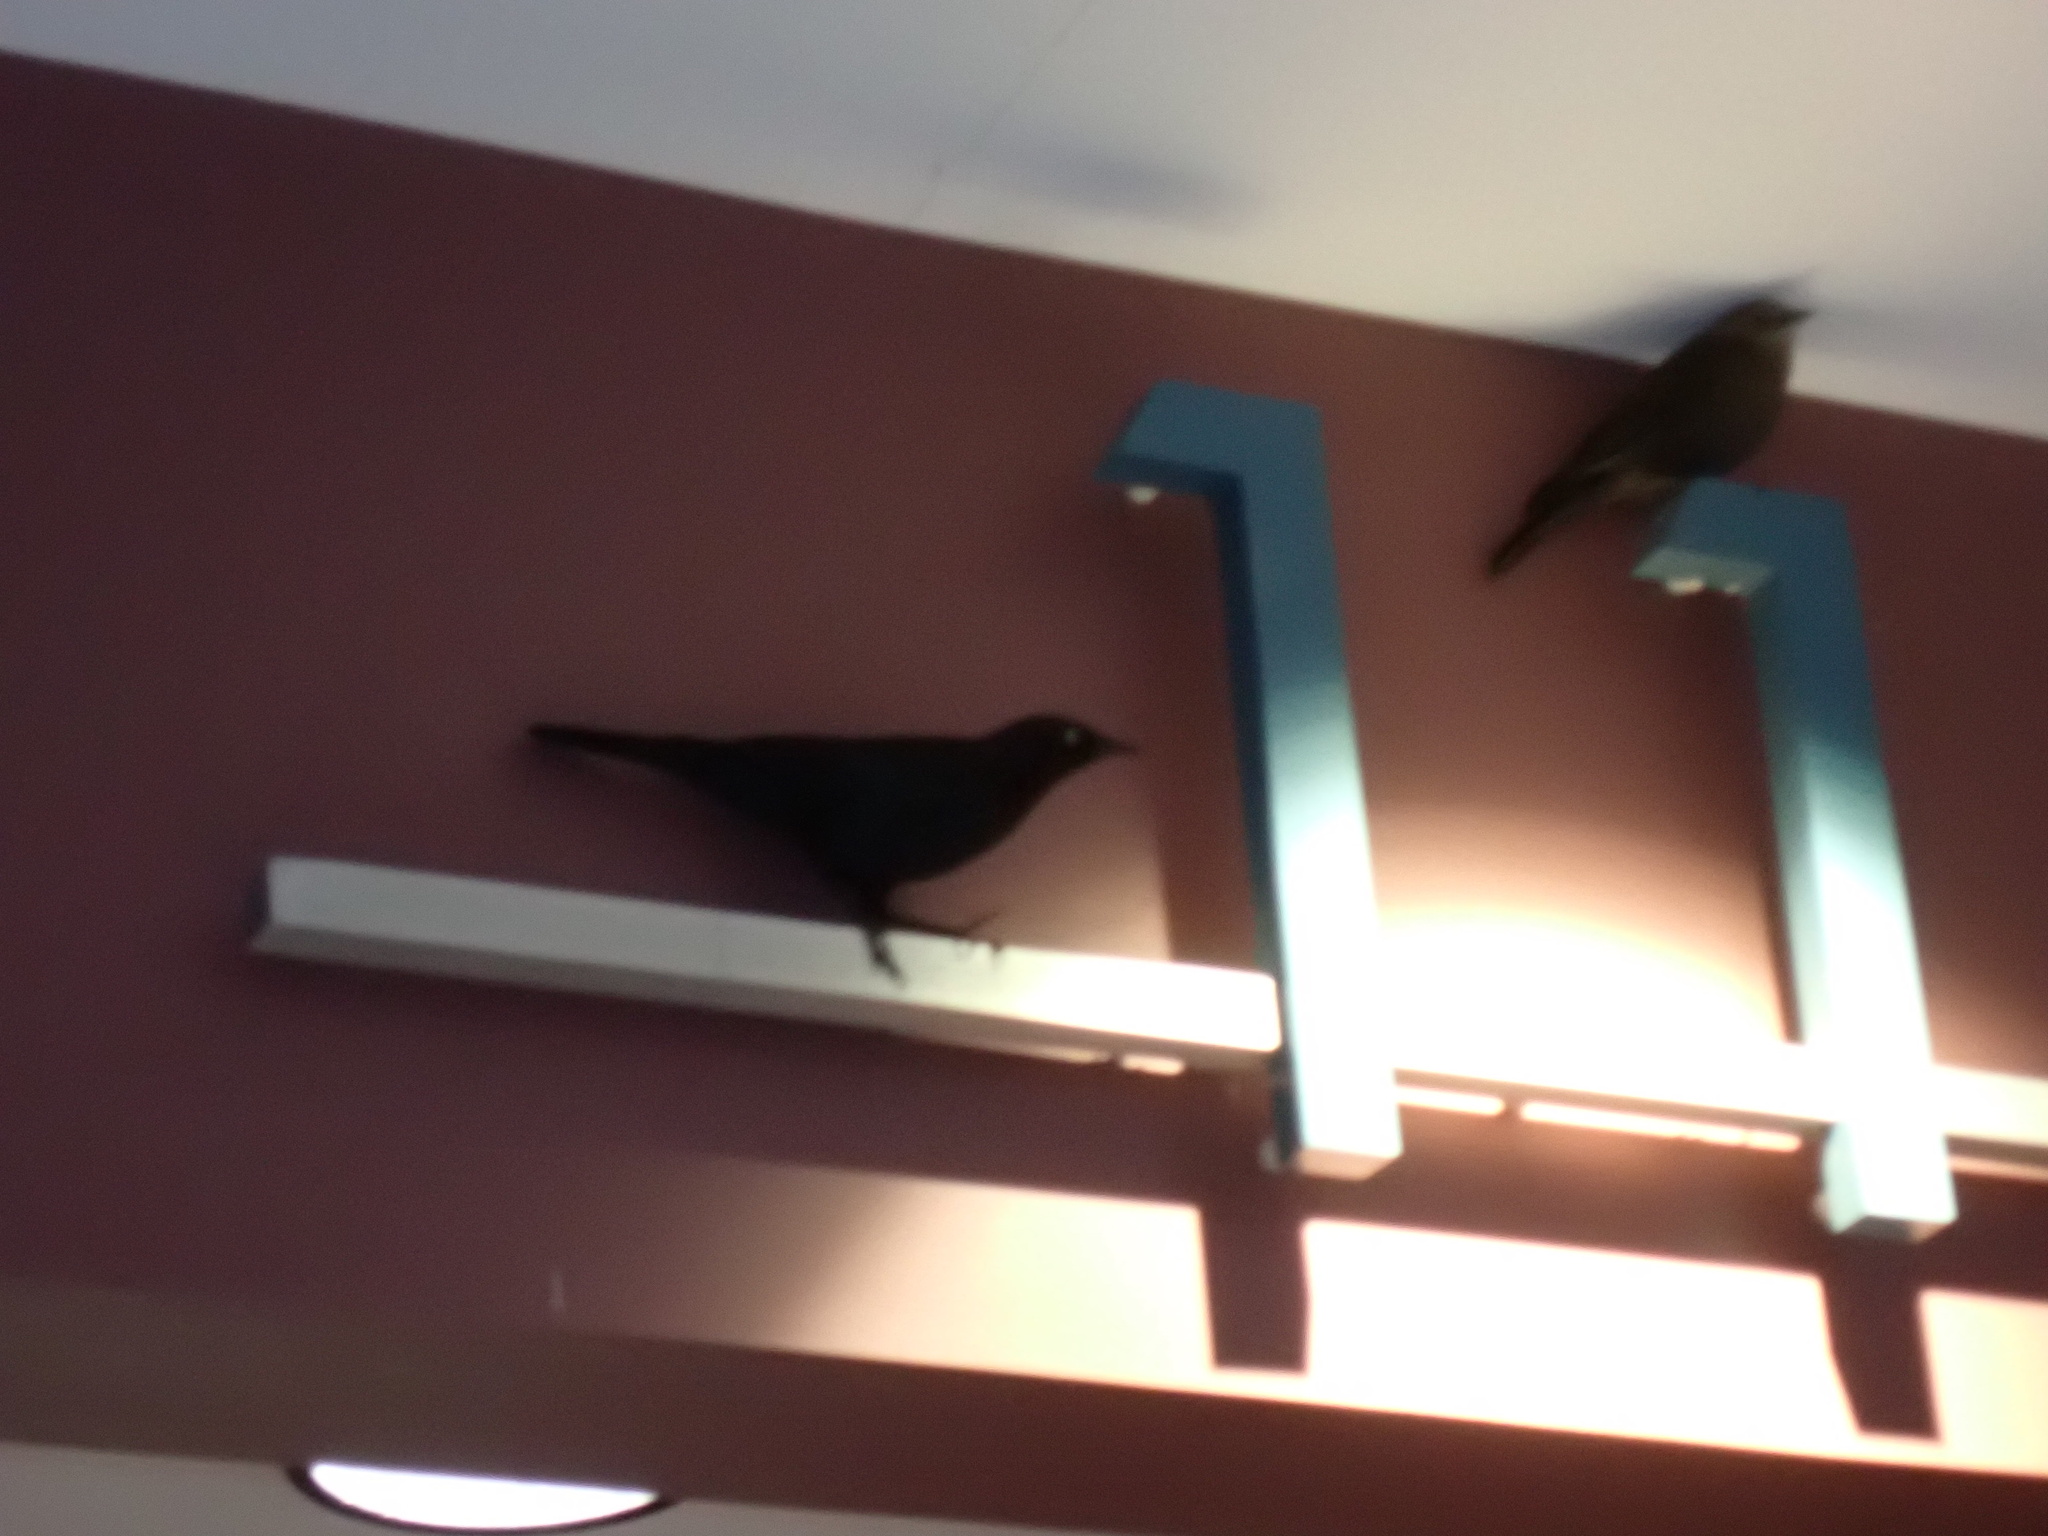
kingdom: Animalia
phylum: Chordata
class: Aves
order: Passeriformes
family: Icteridae
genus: Euphagus
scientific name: Euphagus cyanocephalus
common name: Brewer's blackbird
